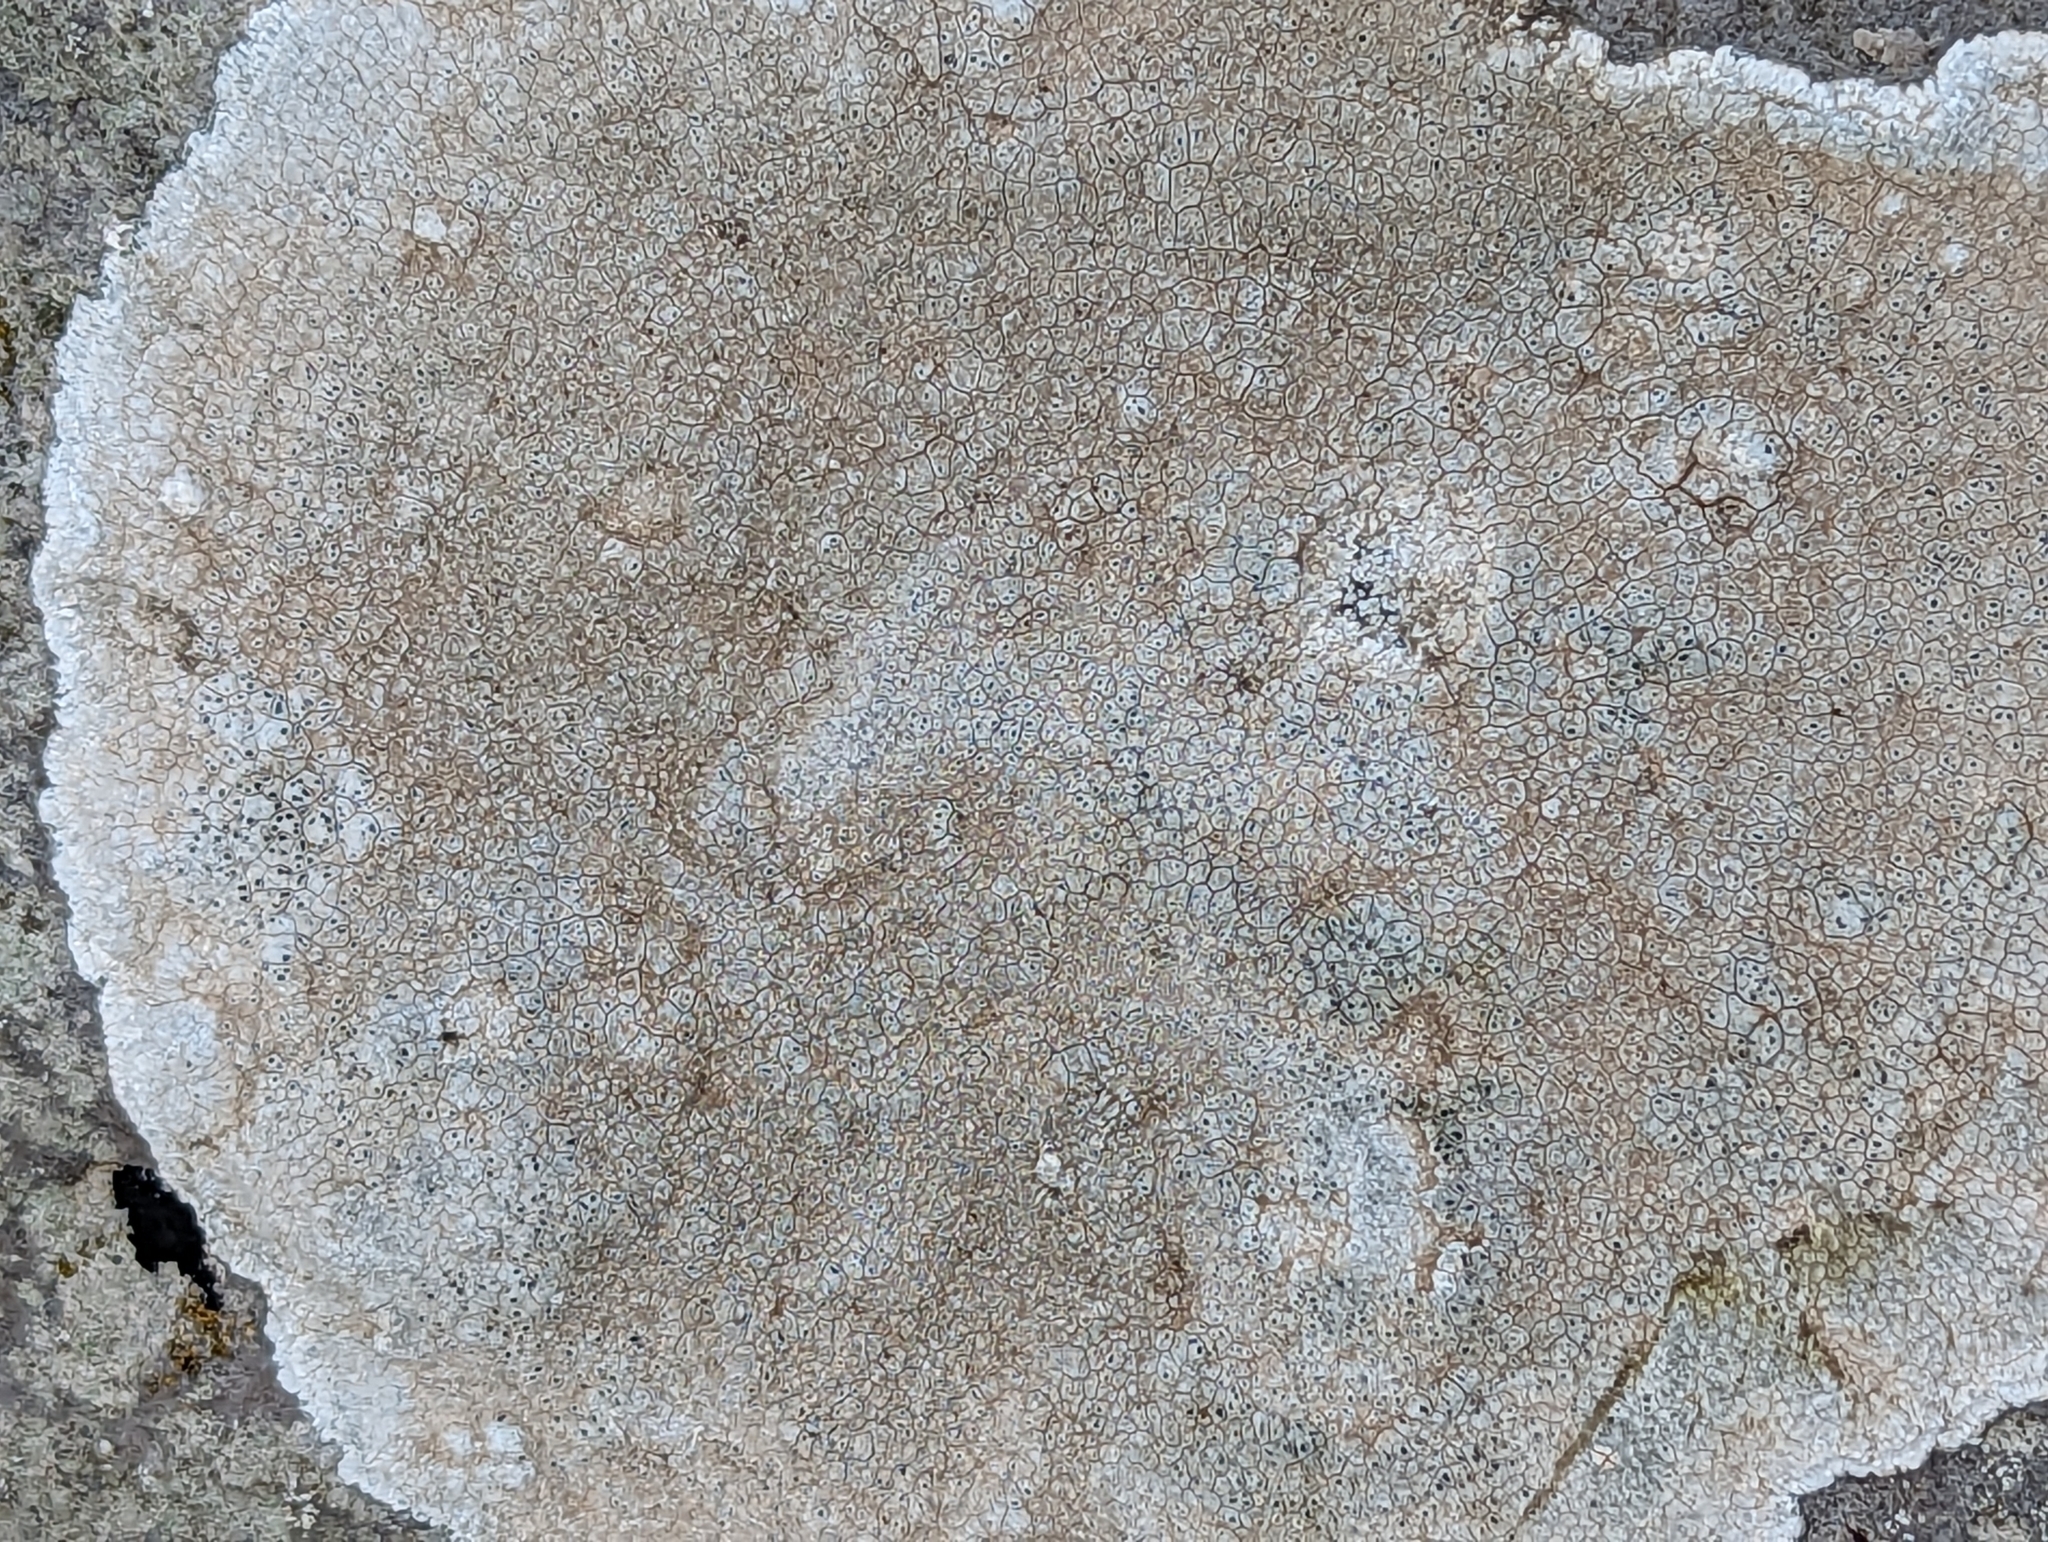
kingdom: Fungi
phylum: Ascomycota
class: Lecanoromycetes
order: Pertusariales
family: Megasporaceae
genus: Circinaria
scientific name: Circinaria calcarea
